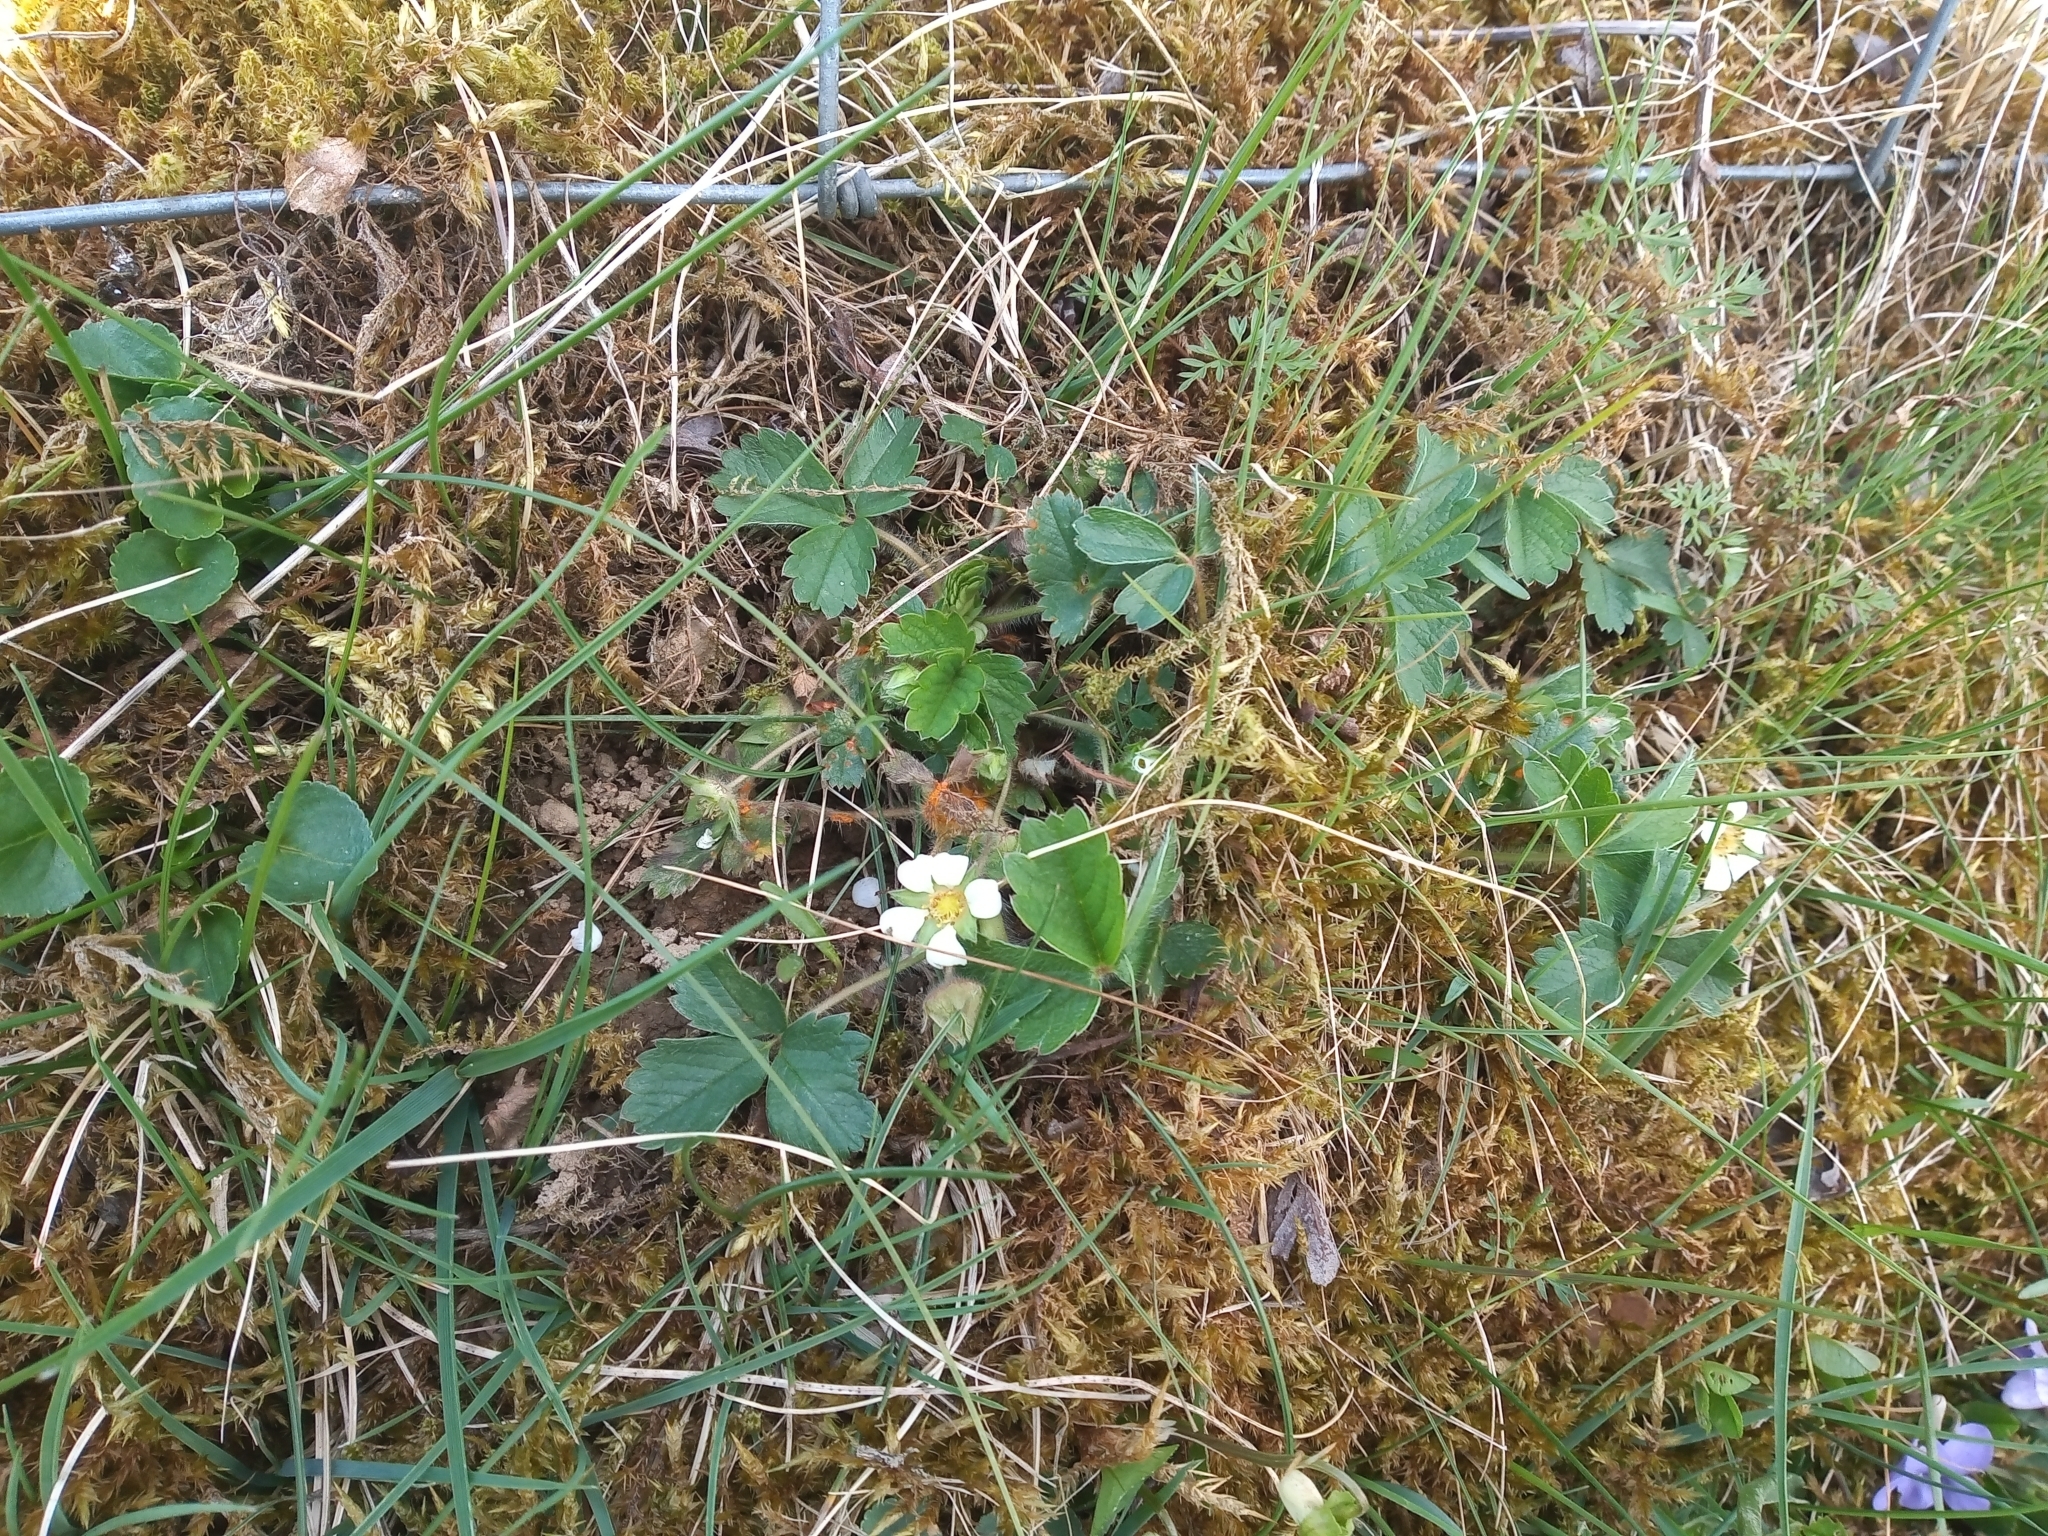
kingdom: Plantae
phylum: Tracheophyta
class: Magnoliopsida
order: Rosales
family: Rosaceae
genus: Potentilla
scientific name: Potentilla sterilis
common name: Barren strawberry
